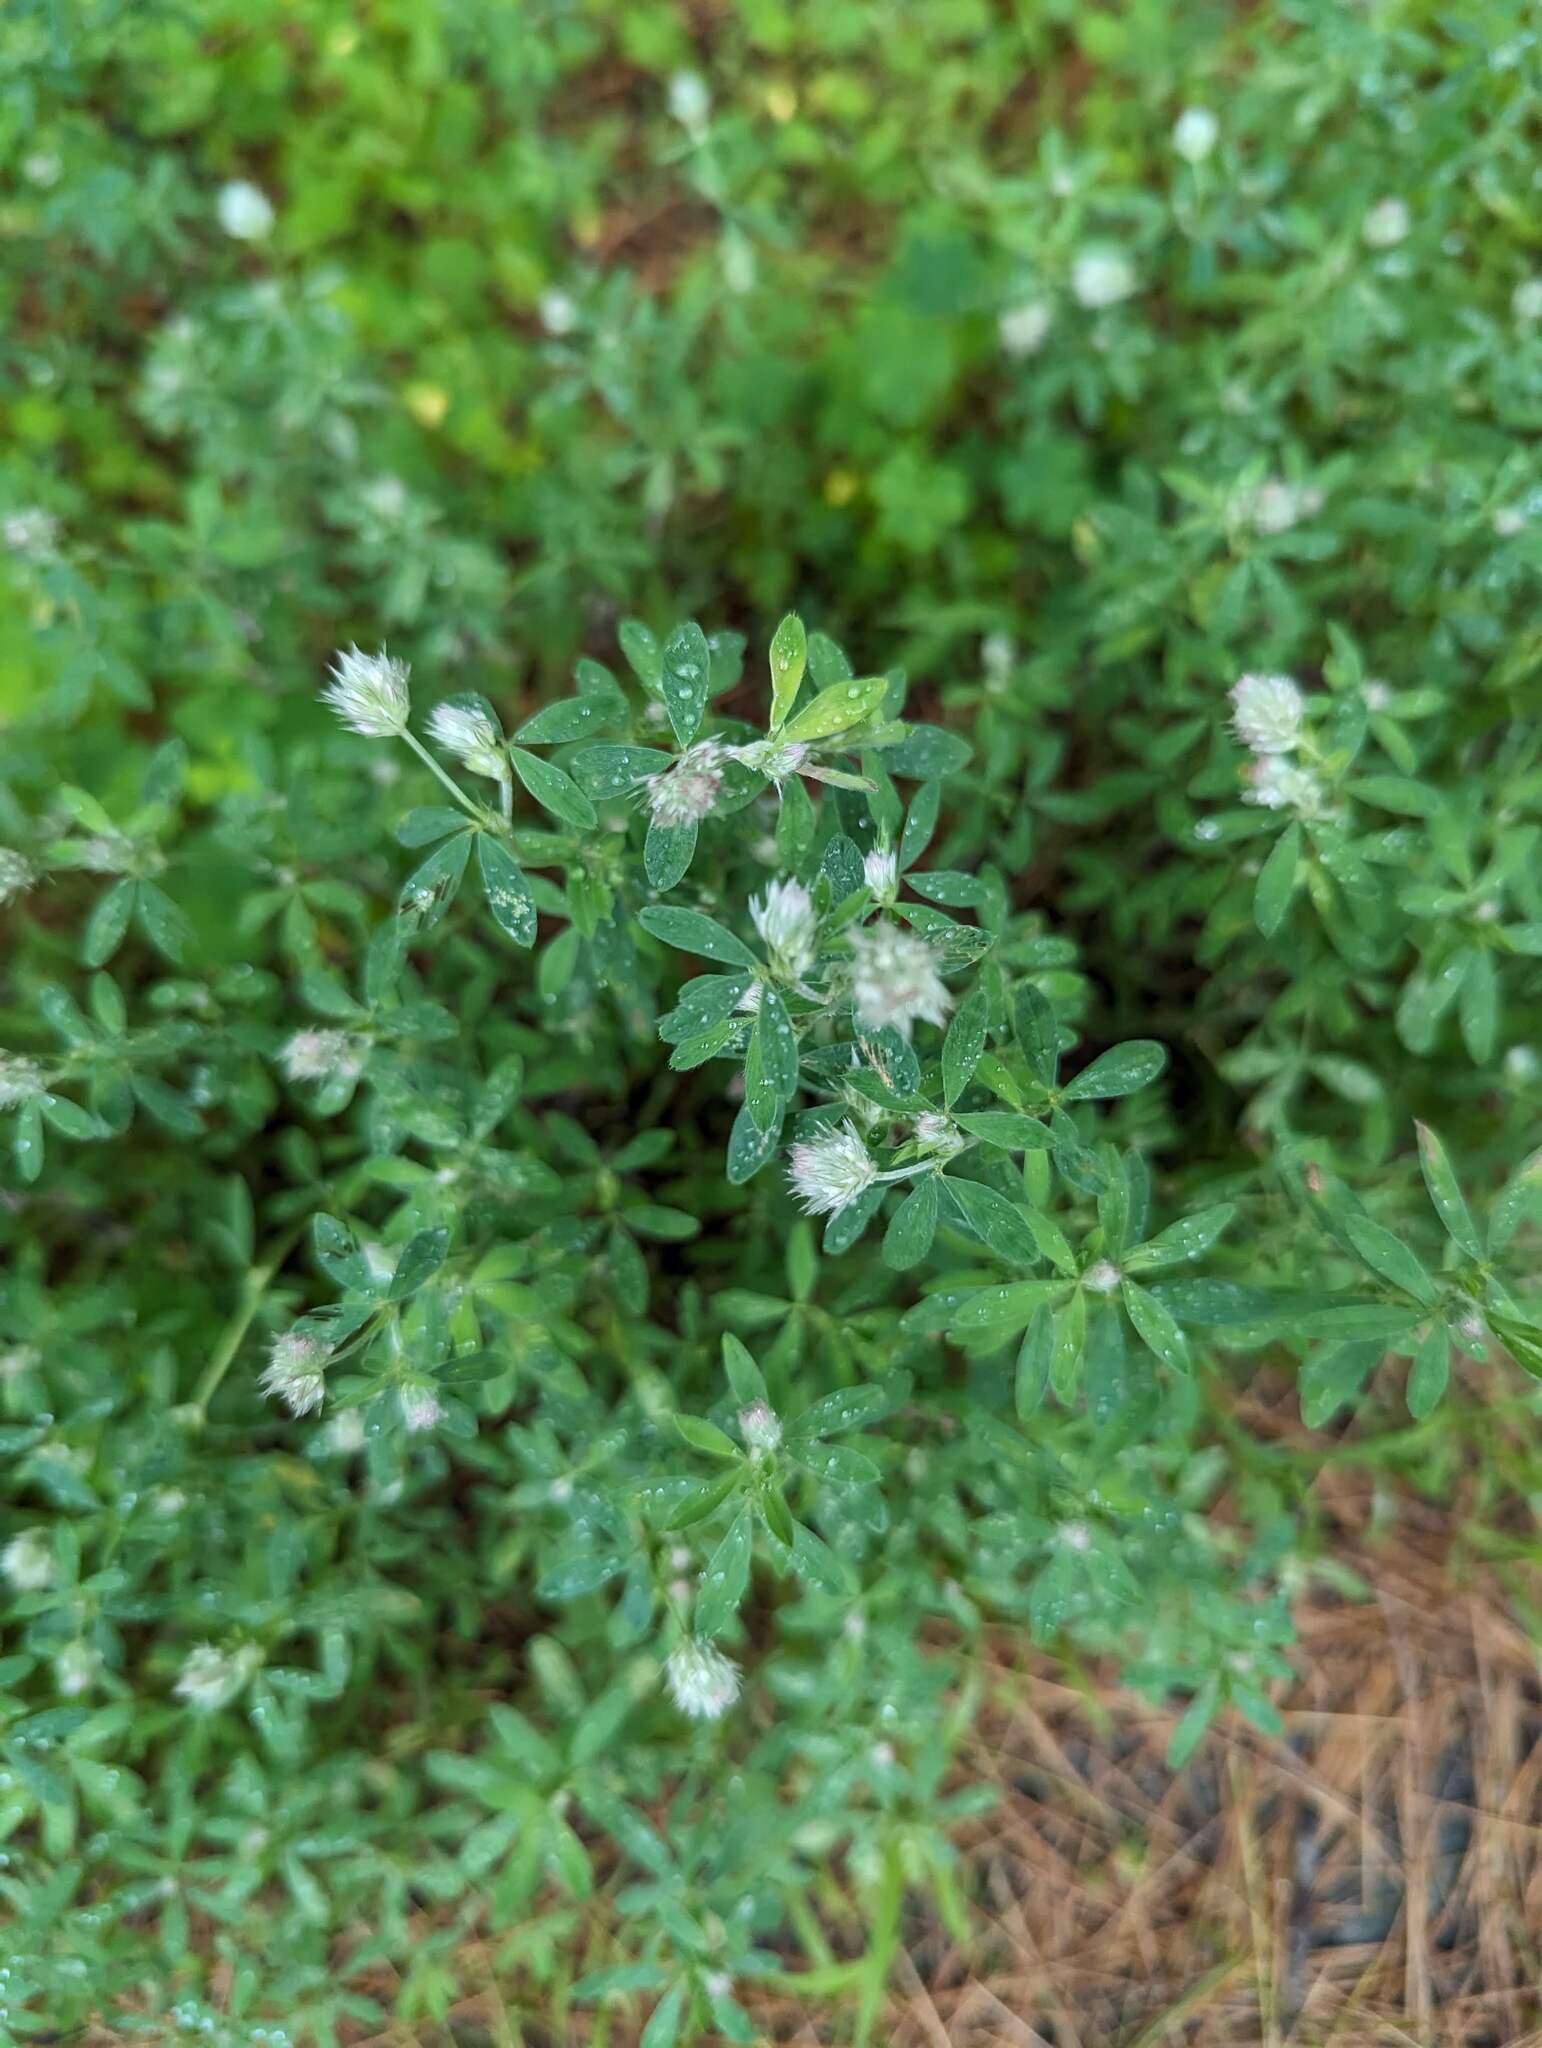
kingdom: Plantae
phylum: Tracheophyta
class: Magnoliopsida
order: Fabales
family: Fabaceae
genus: Trifolium
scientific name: Trifolium arvense
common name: Hare's-foot clover
